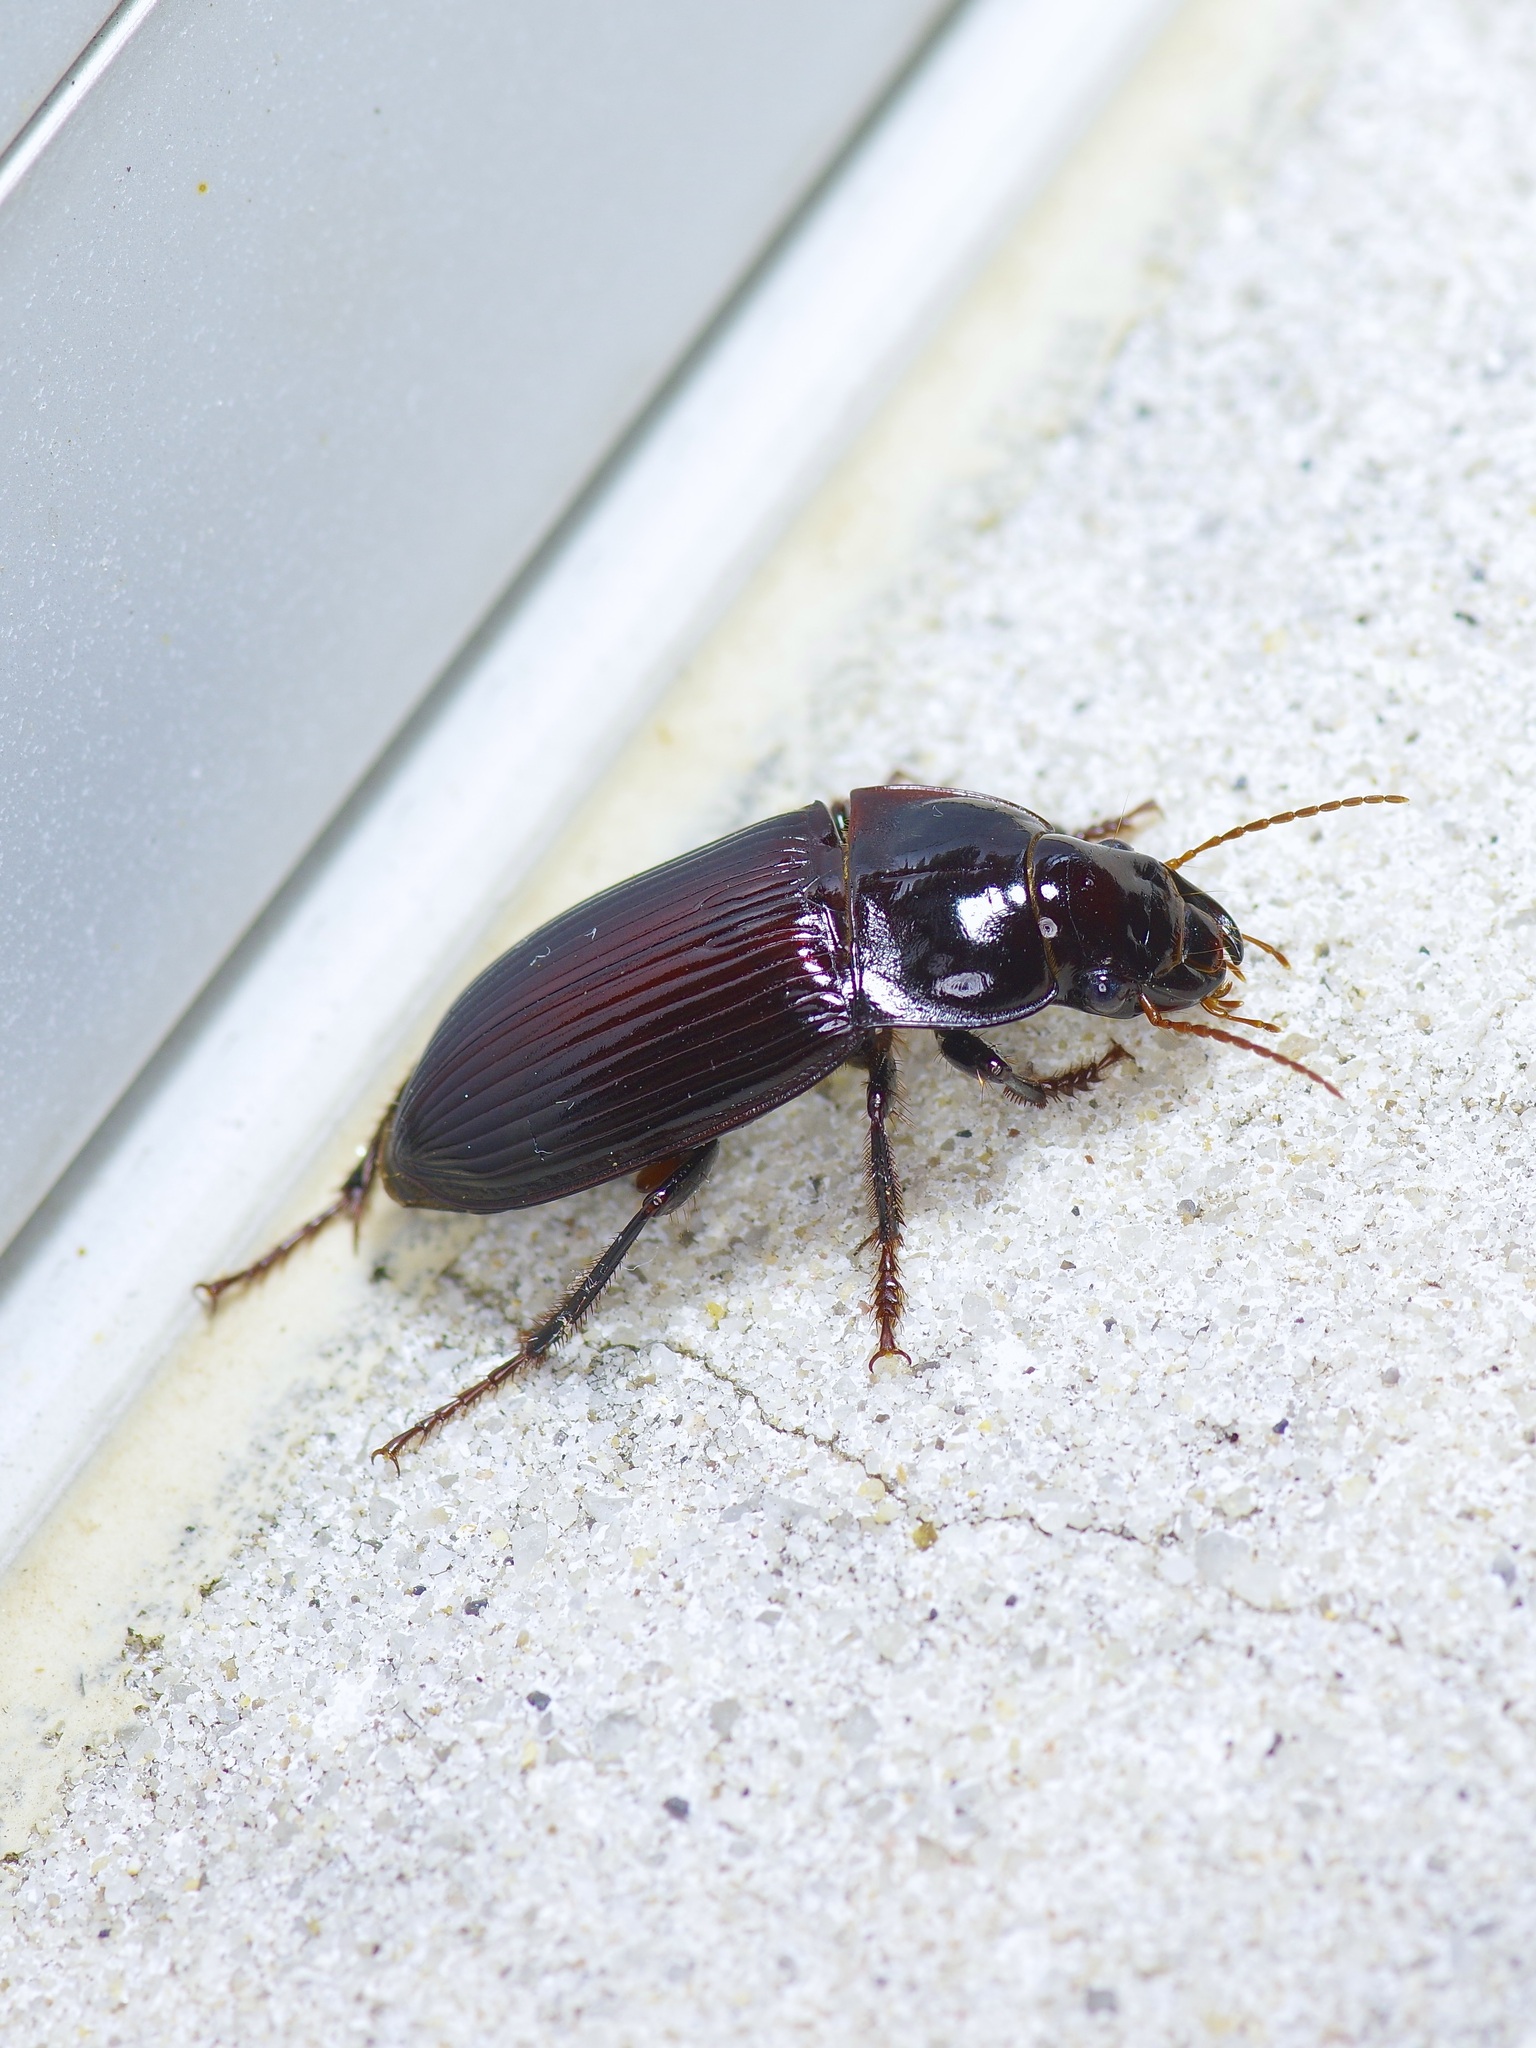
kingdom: Animalia
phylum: Arthropoda
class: Insecta
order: Coleoptera
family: Carabidae
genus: Harpalus
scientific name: Harpalus caliginosus
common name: Murky ground beetle
